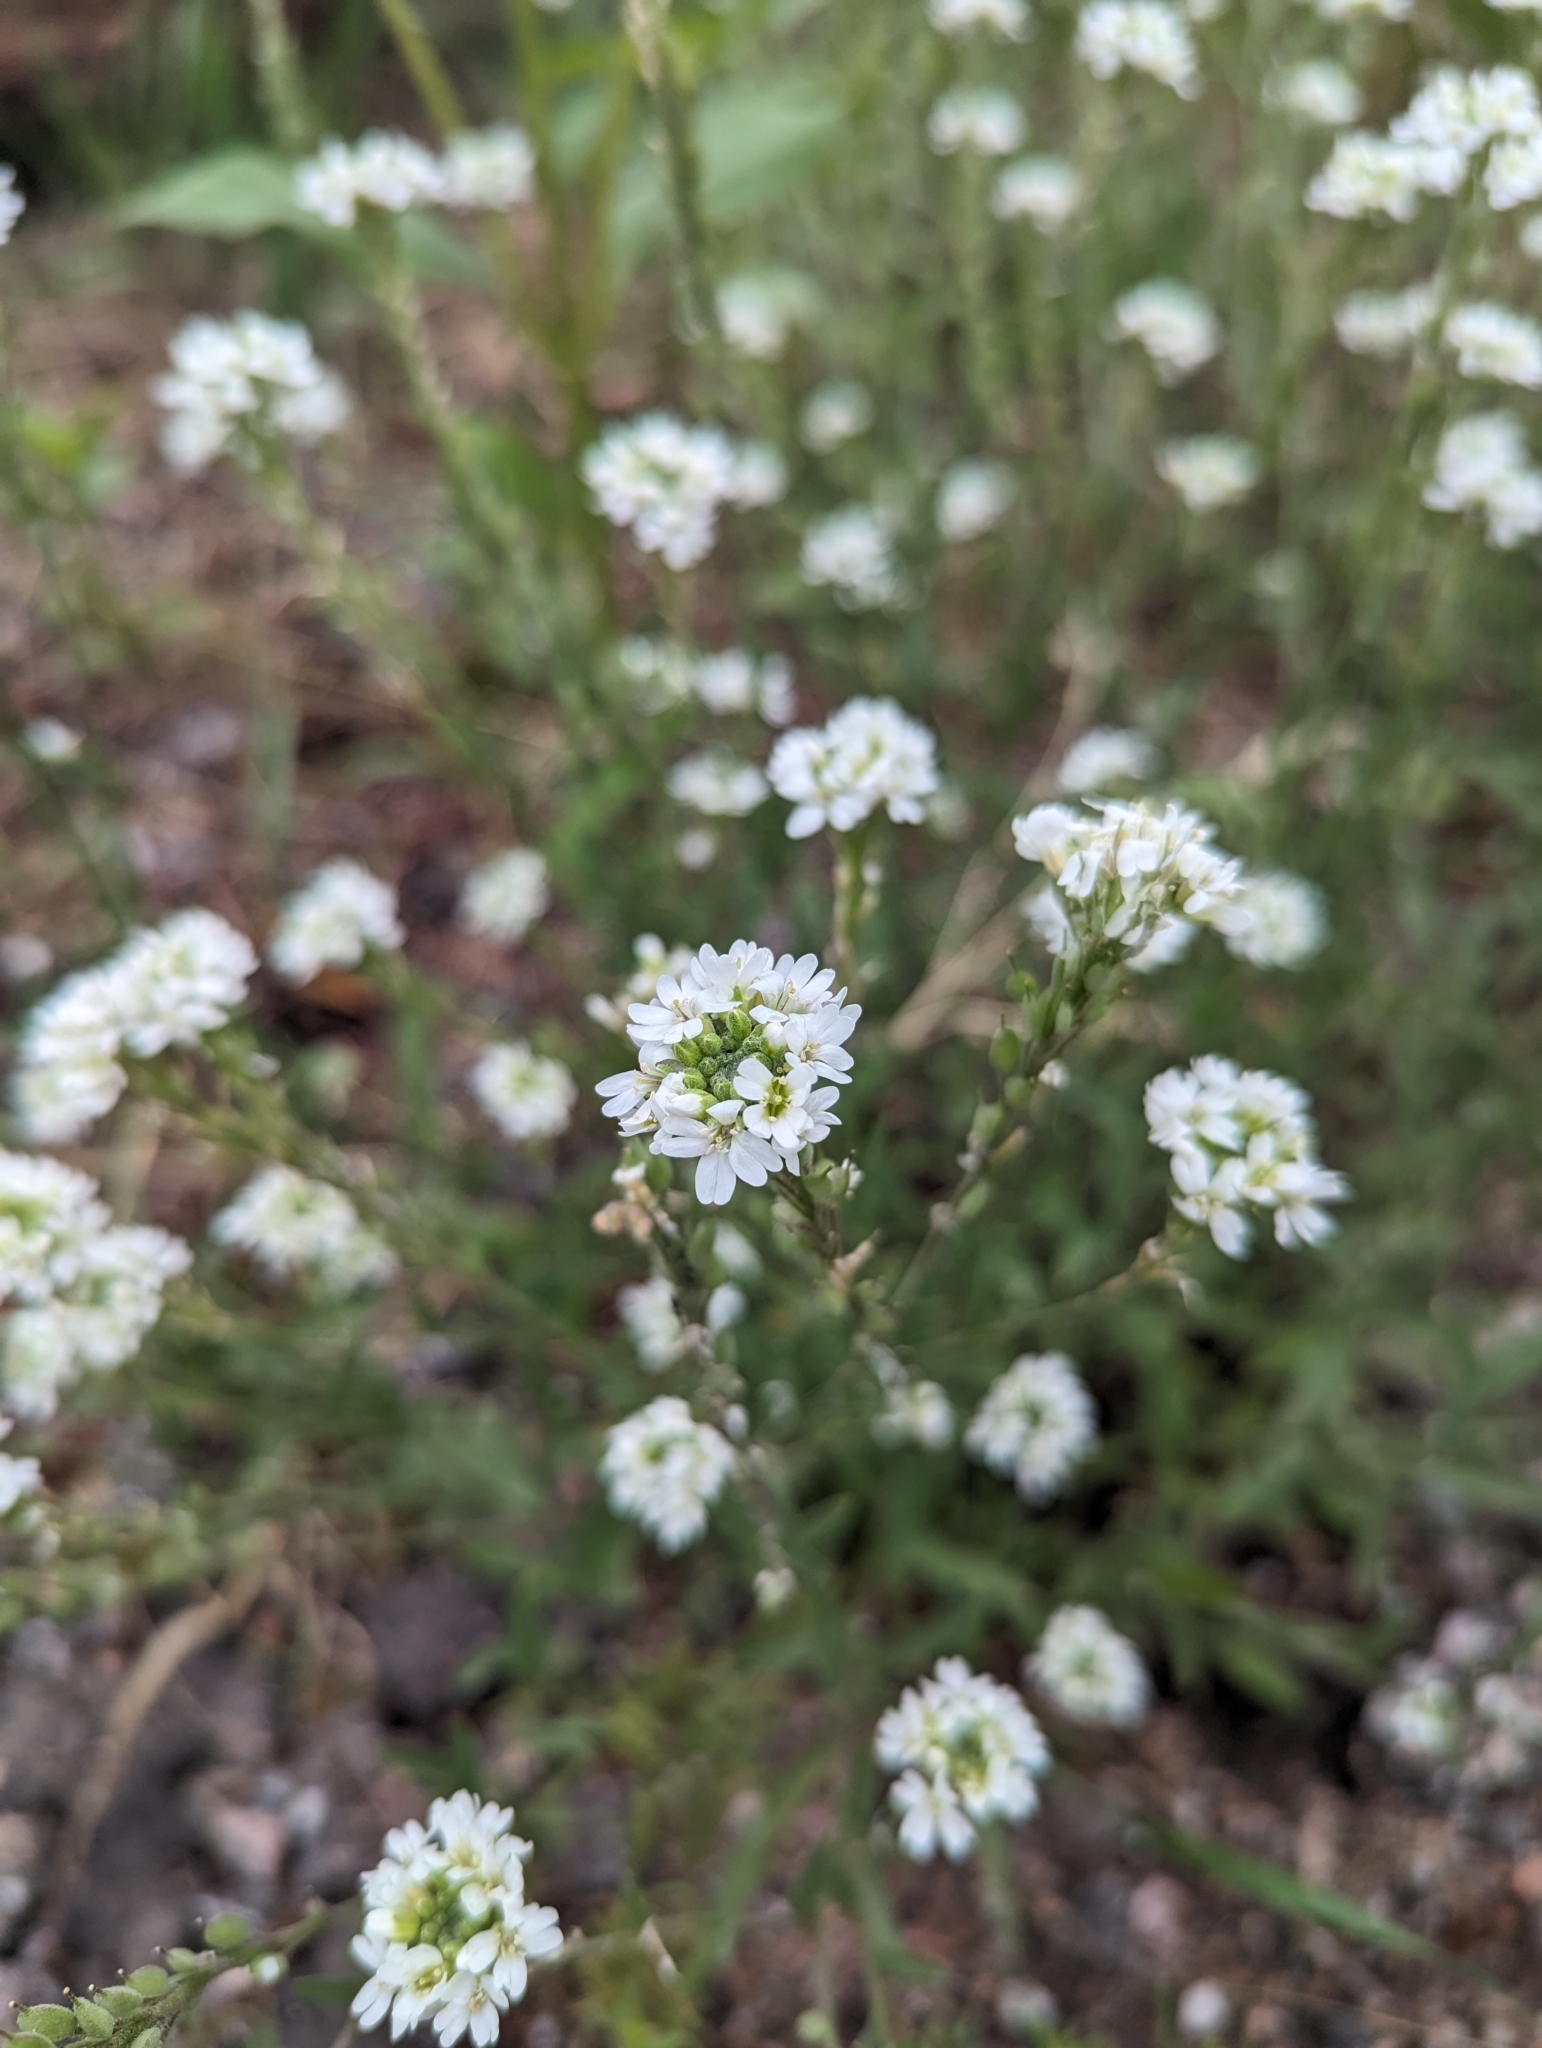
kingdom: Plantae
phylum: Tracheophyta
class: Magnoliopsida
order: Brassicales
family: Brassicaceae
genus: Berteroa
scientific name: Berteroa incana
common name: Hoary alison
